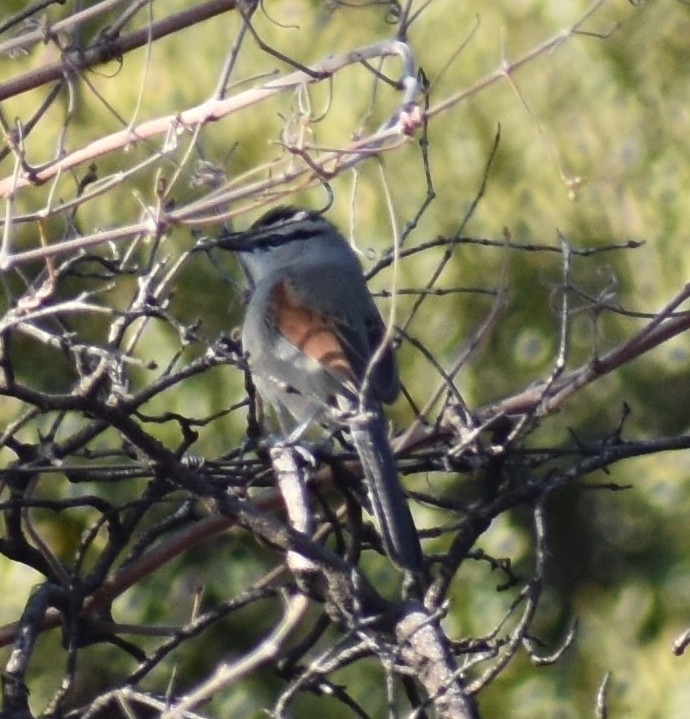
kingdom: Animalia
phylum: Chordata
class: Aves
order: Passeriformes
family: Malaconotidae
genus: Tchagra
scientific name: Tchagra australis
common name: Brown-crowned tchagra
